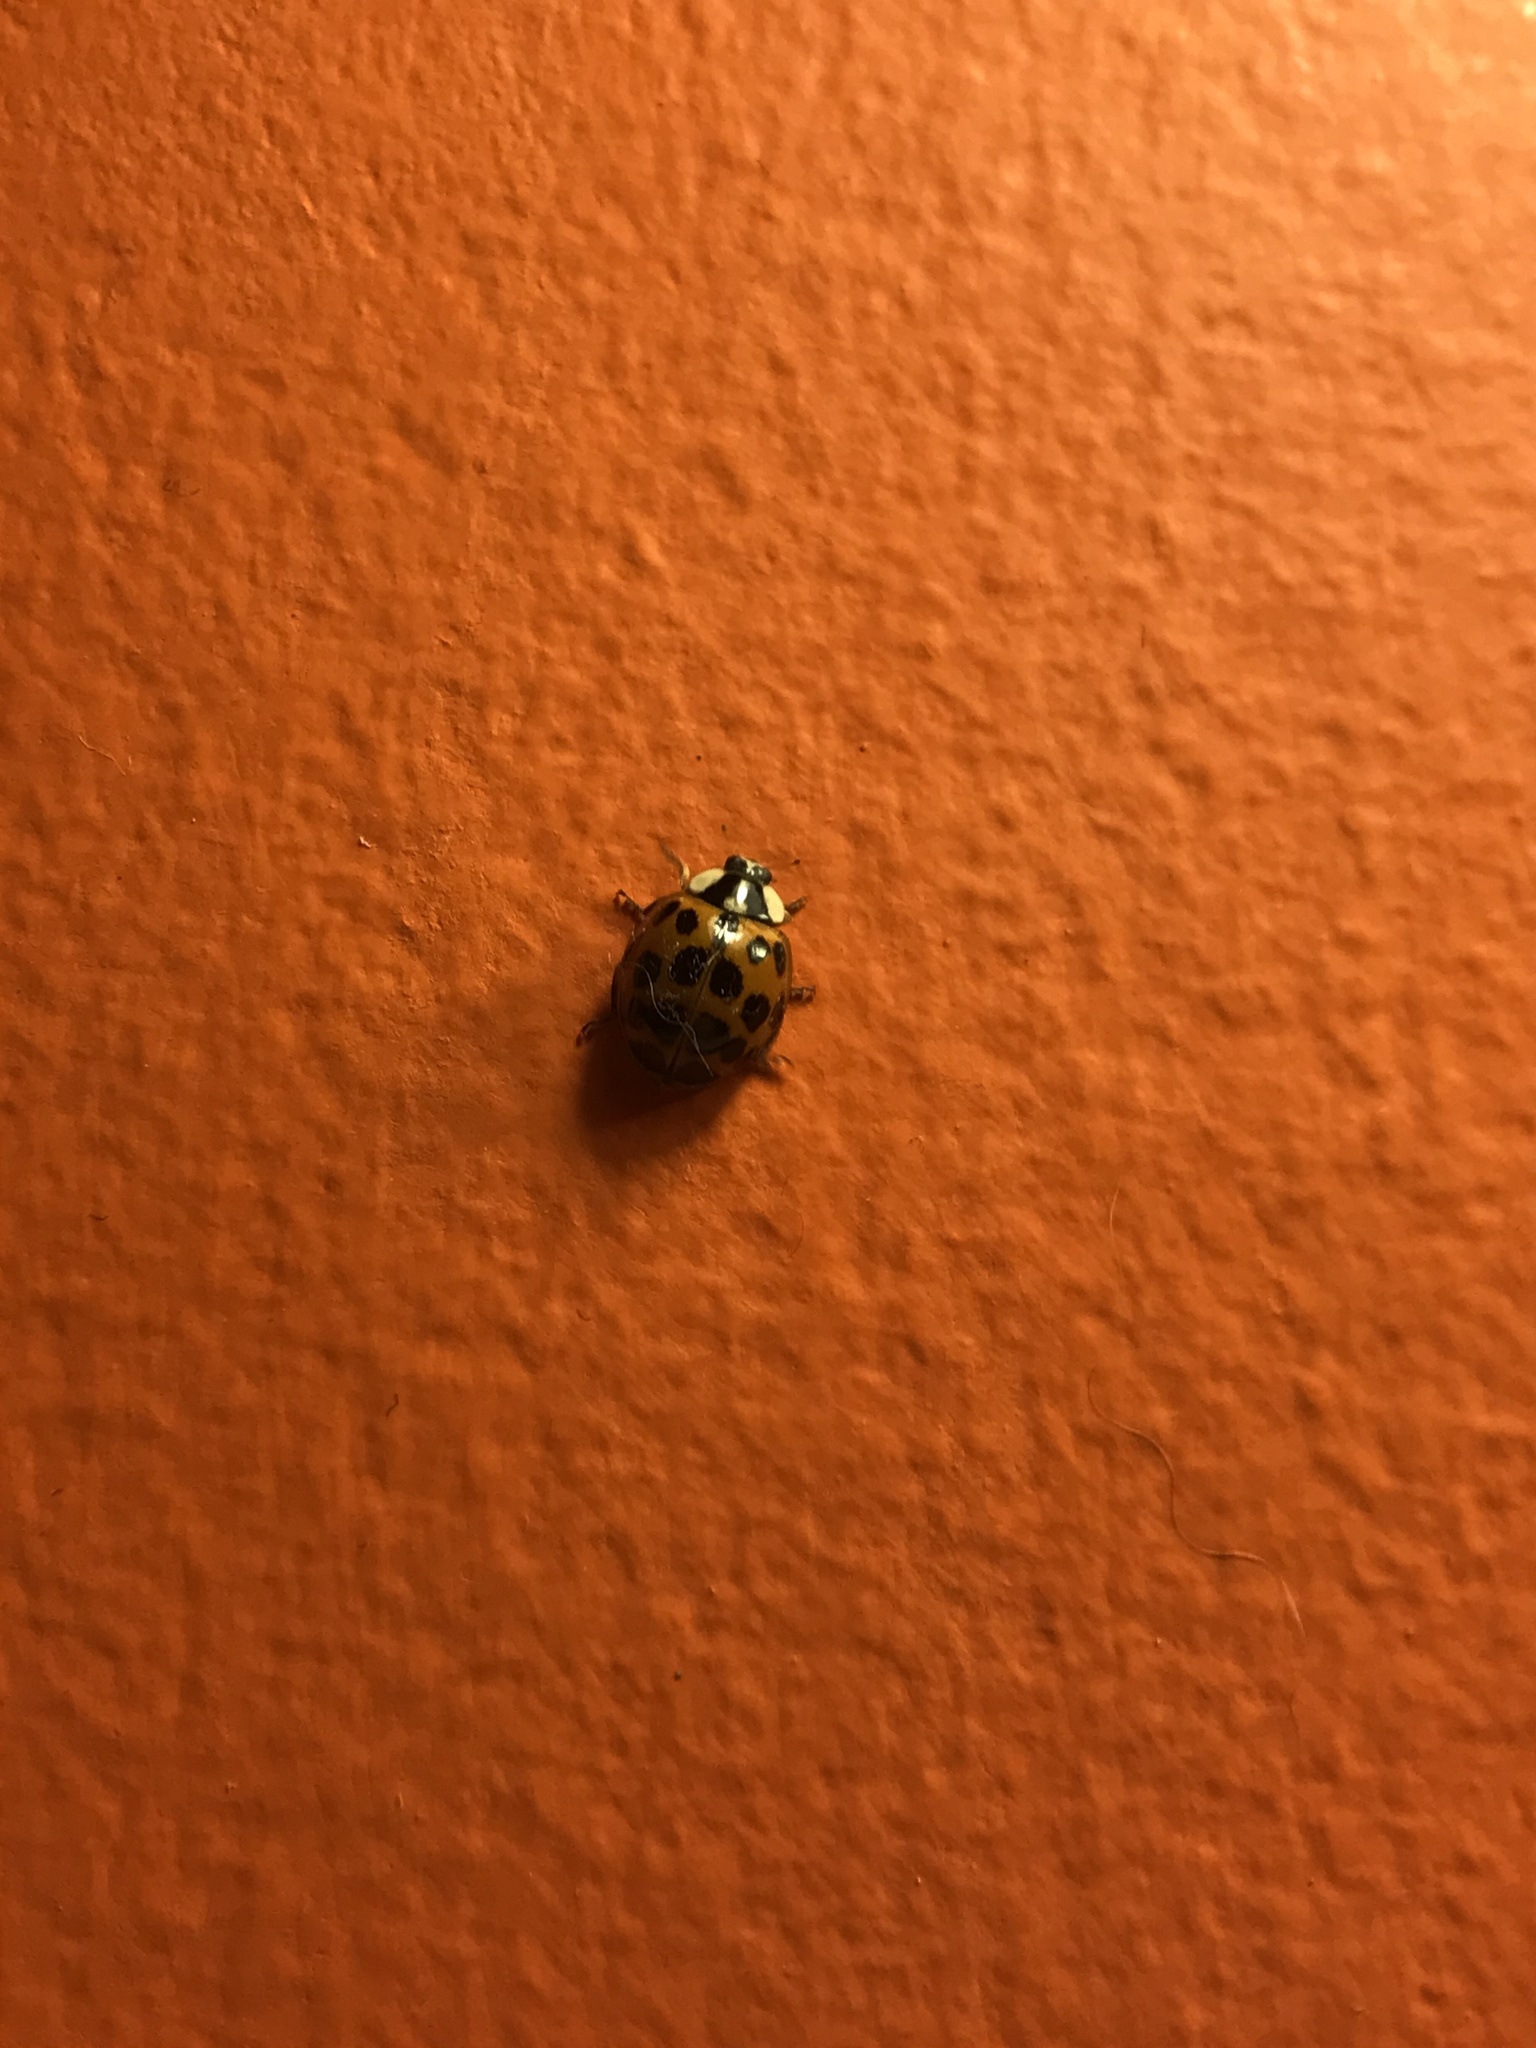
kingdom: Animalia
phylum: Arthropoda
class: Insecta
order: Coleoptera
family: Coccinellidae
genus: Harmonia
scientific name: Harmonia axyridis
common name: Harlequin ladybird
